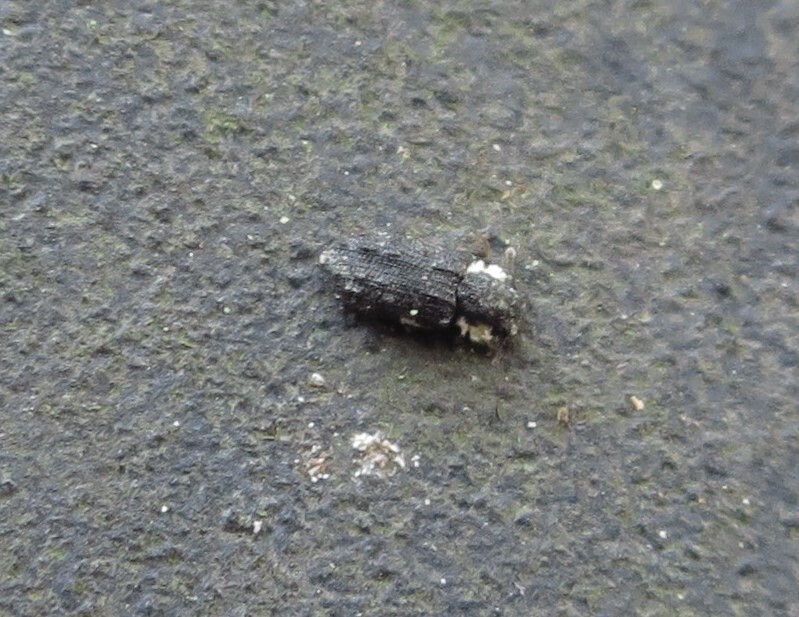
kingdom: Animalia
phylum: Arthropoda
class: Insecta
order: Coleoptera
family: Zopheridae
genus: Pristoderus
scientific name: Pristoderus
